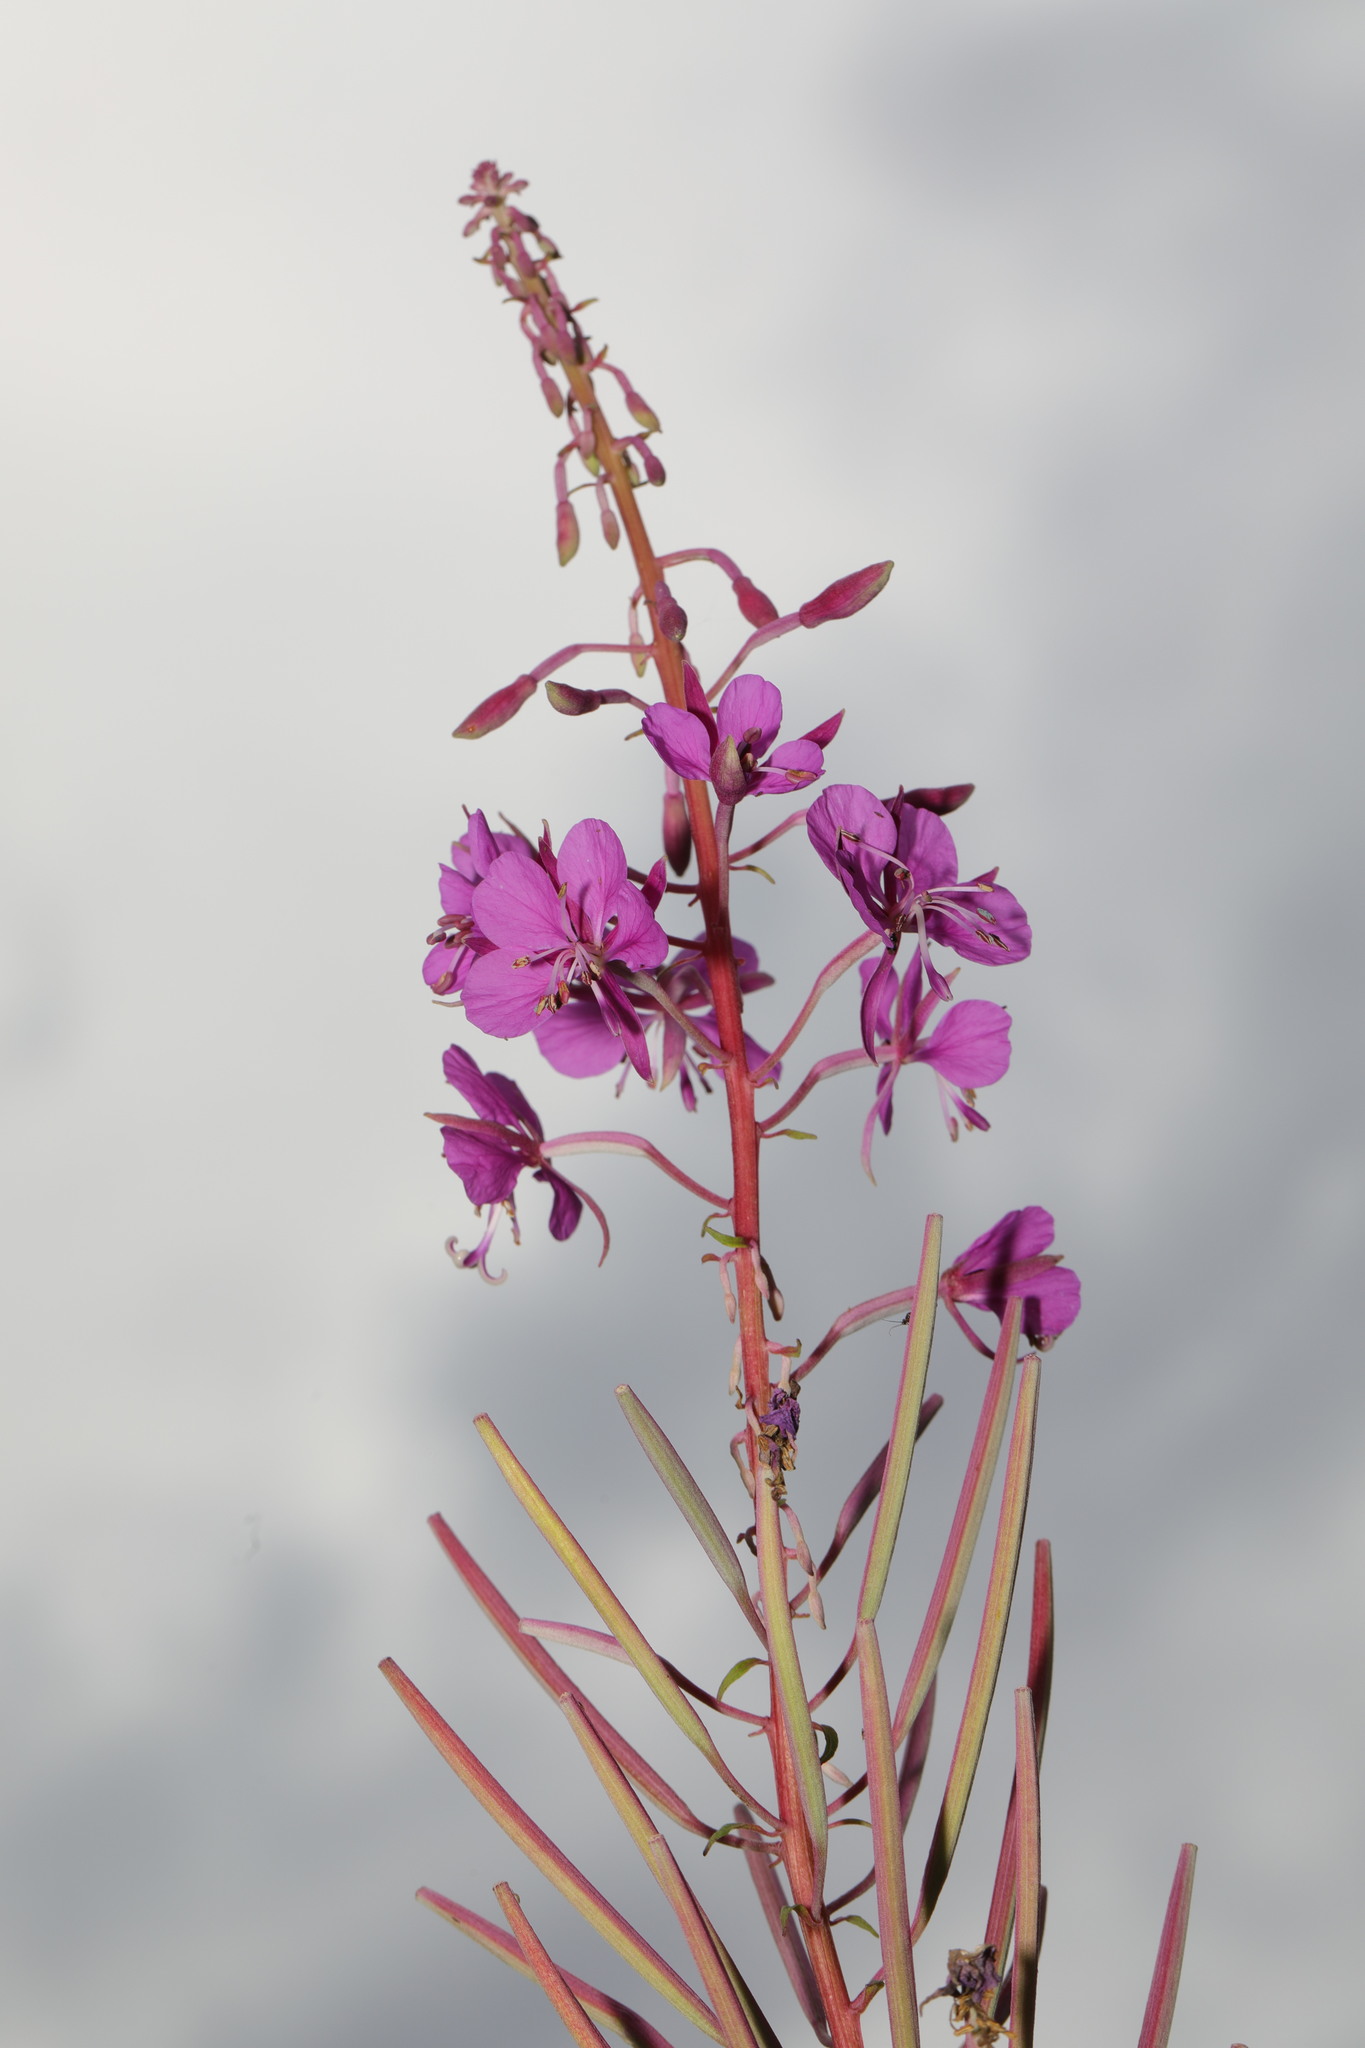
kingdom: Plantae
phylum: Tracheophyta
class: Magnoliopsida
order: Myrtales
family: Onagraceae
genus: Chamaenerion
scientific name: Chamaenerion angustifolium
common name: Fireweed
